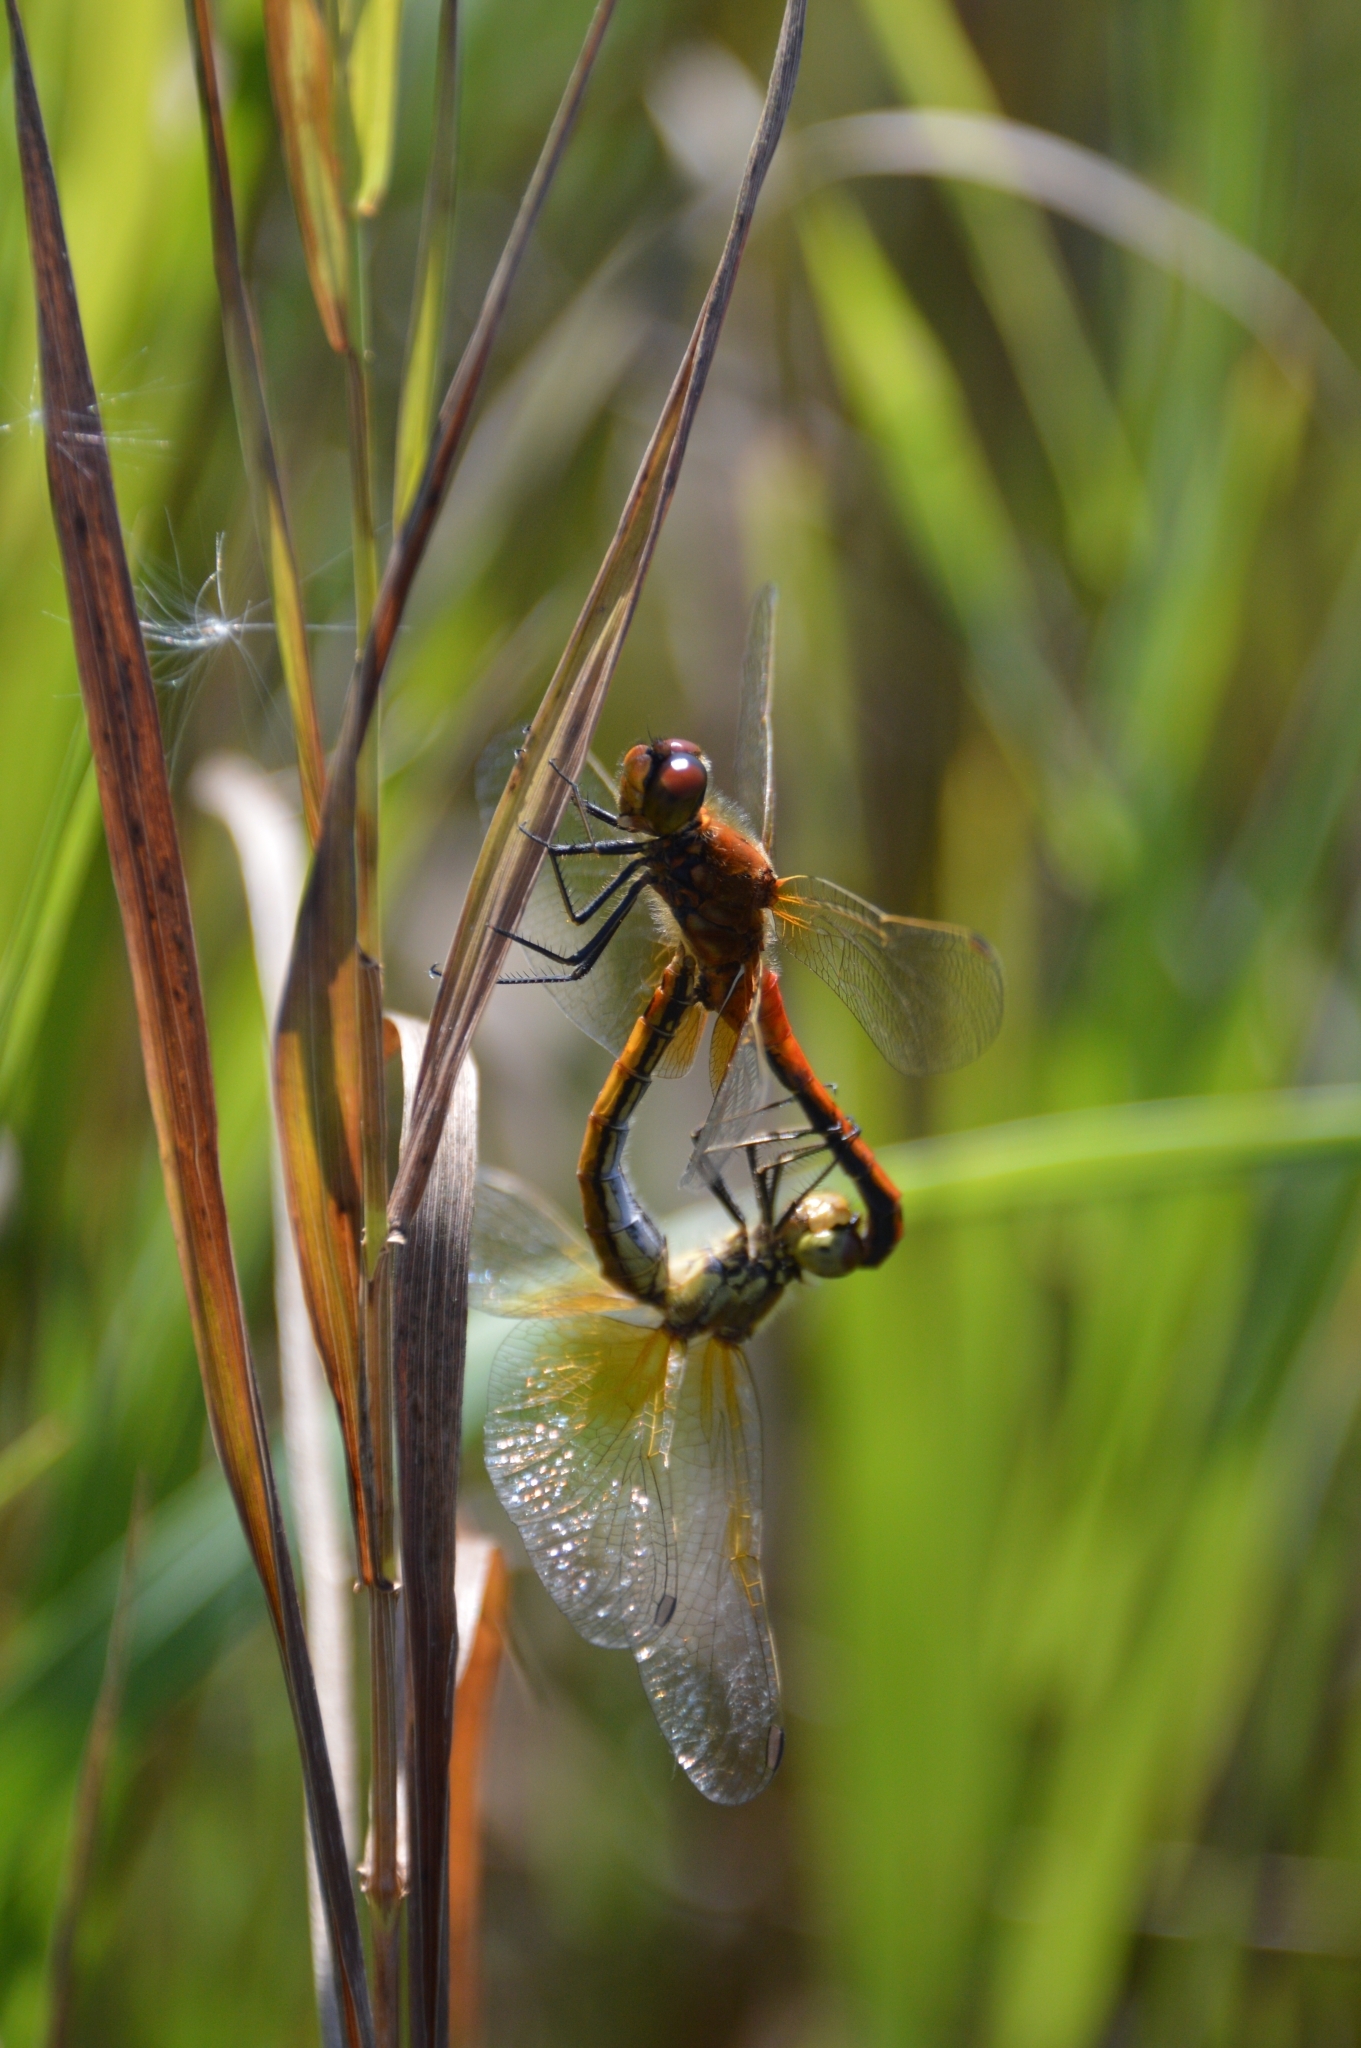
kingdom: Animalia
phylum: Arthropoda
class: Insecta
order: Odonata
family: Libellulidae
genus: Sympetrum
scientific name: Sympetrum flaveolum
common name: Yellow-winged darter
